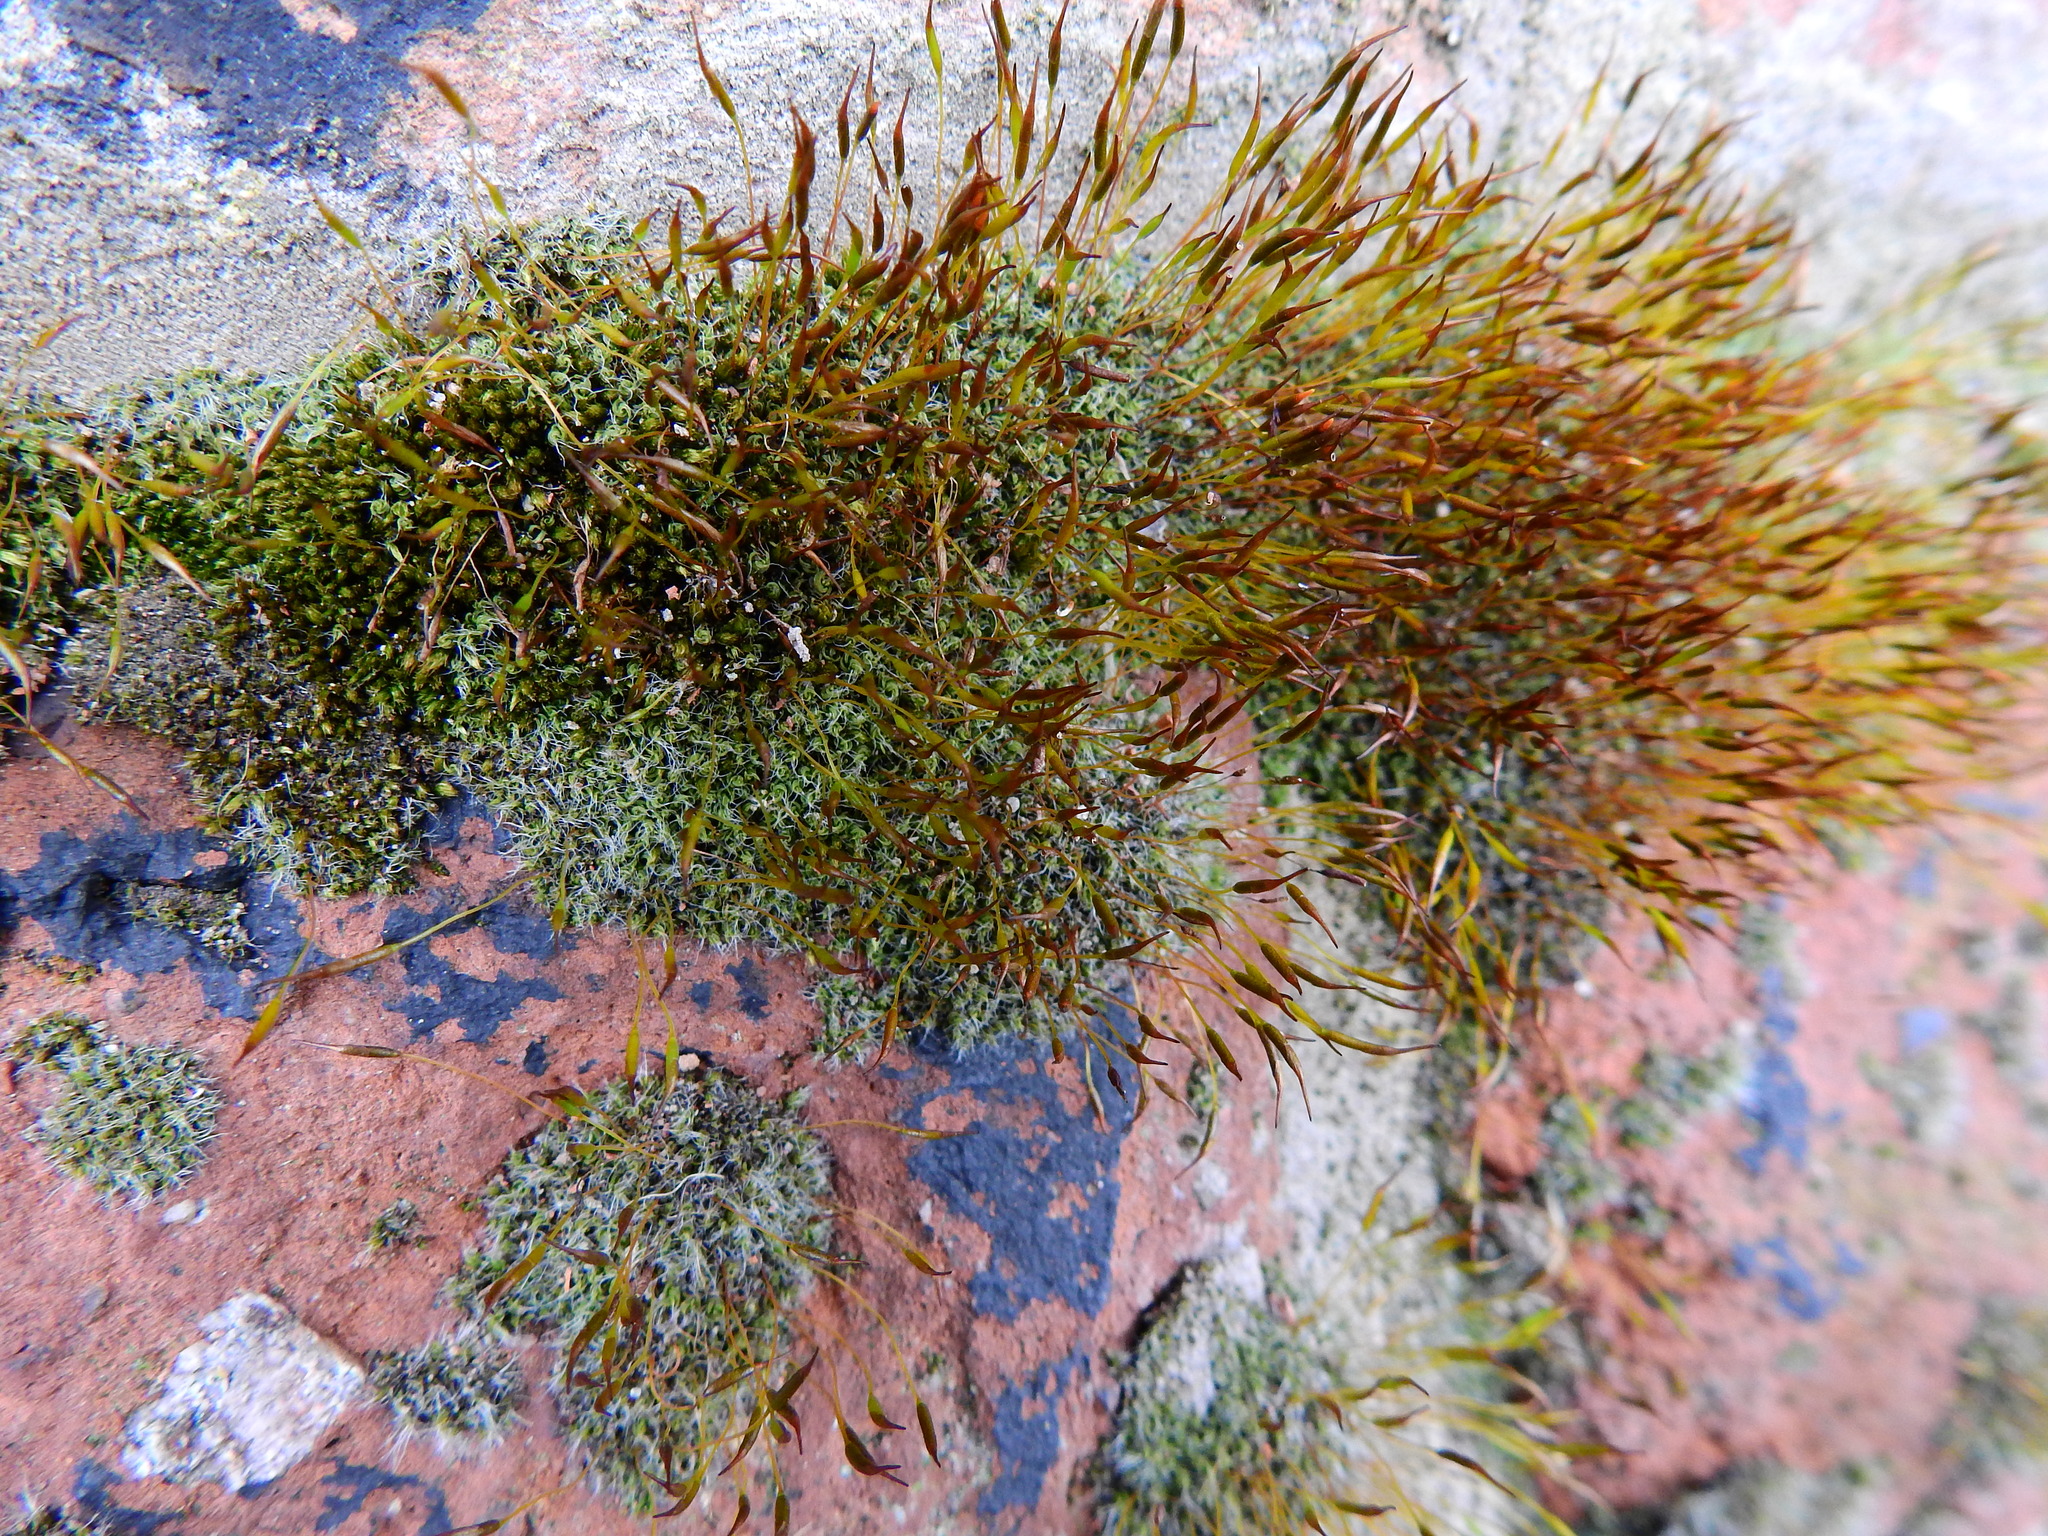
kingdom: Plantae
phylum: Bryophyta
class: Bryopsida
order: Pottiales
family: Pottiaceae
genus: Tortula
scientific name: Tortula muralis
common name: Wall screw-moss
